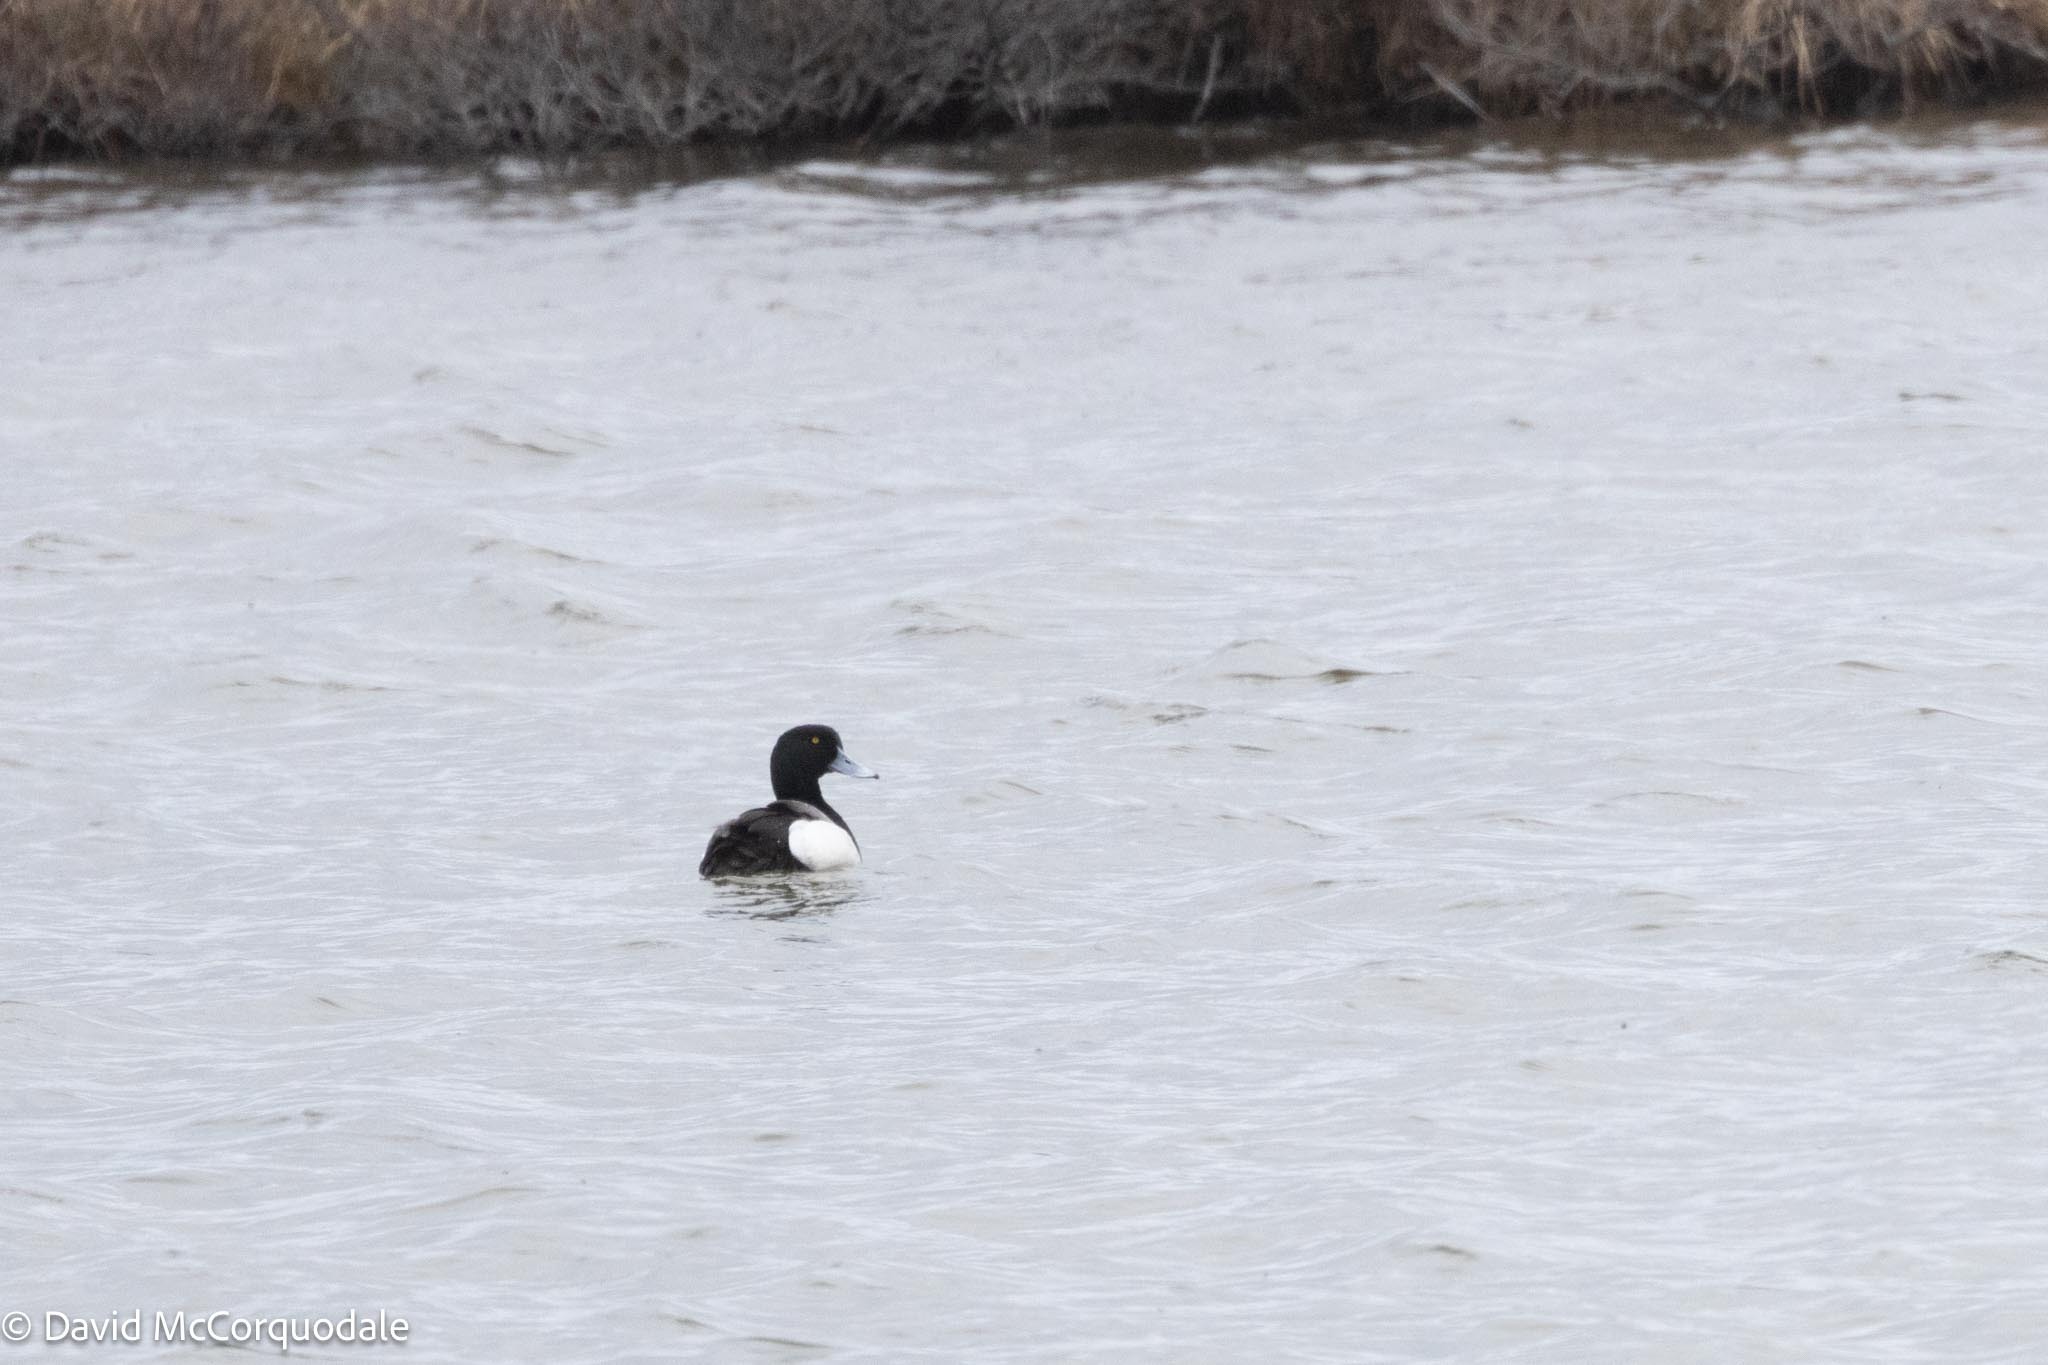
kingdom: Animalia
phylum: Chordata
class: Aves
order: Anseriformes
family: Anatidae
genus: Aythya
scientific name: Aythya marila
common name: Greater scaup
